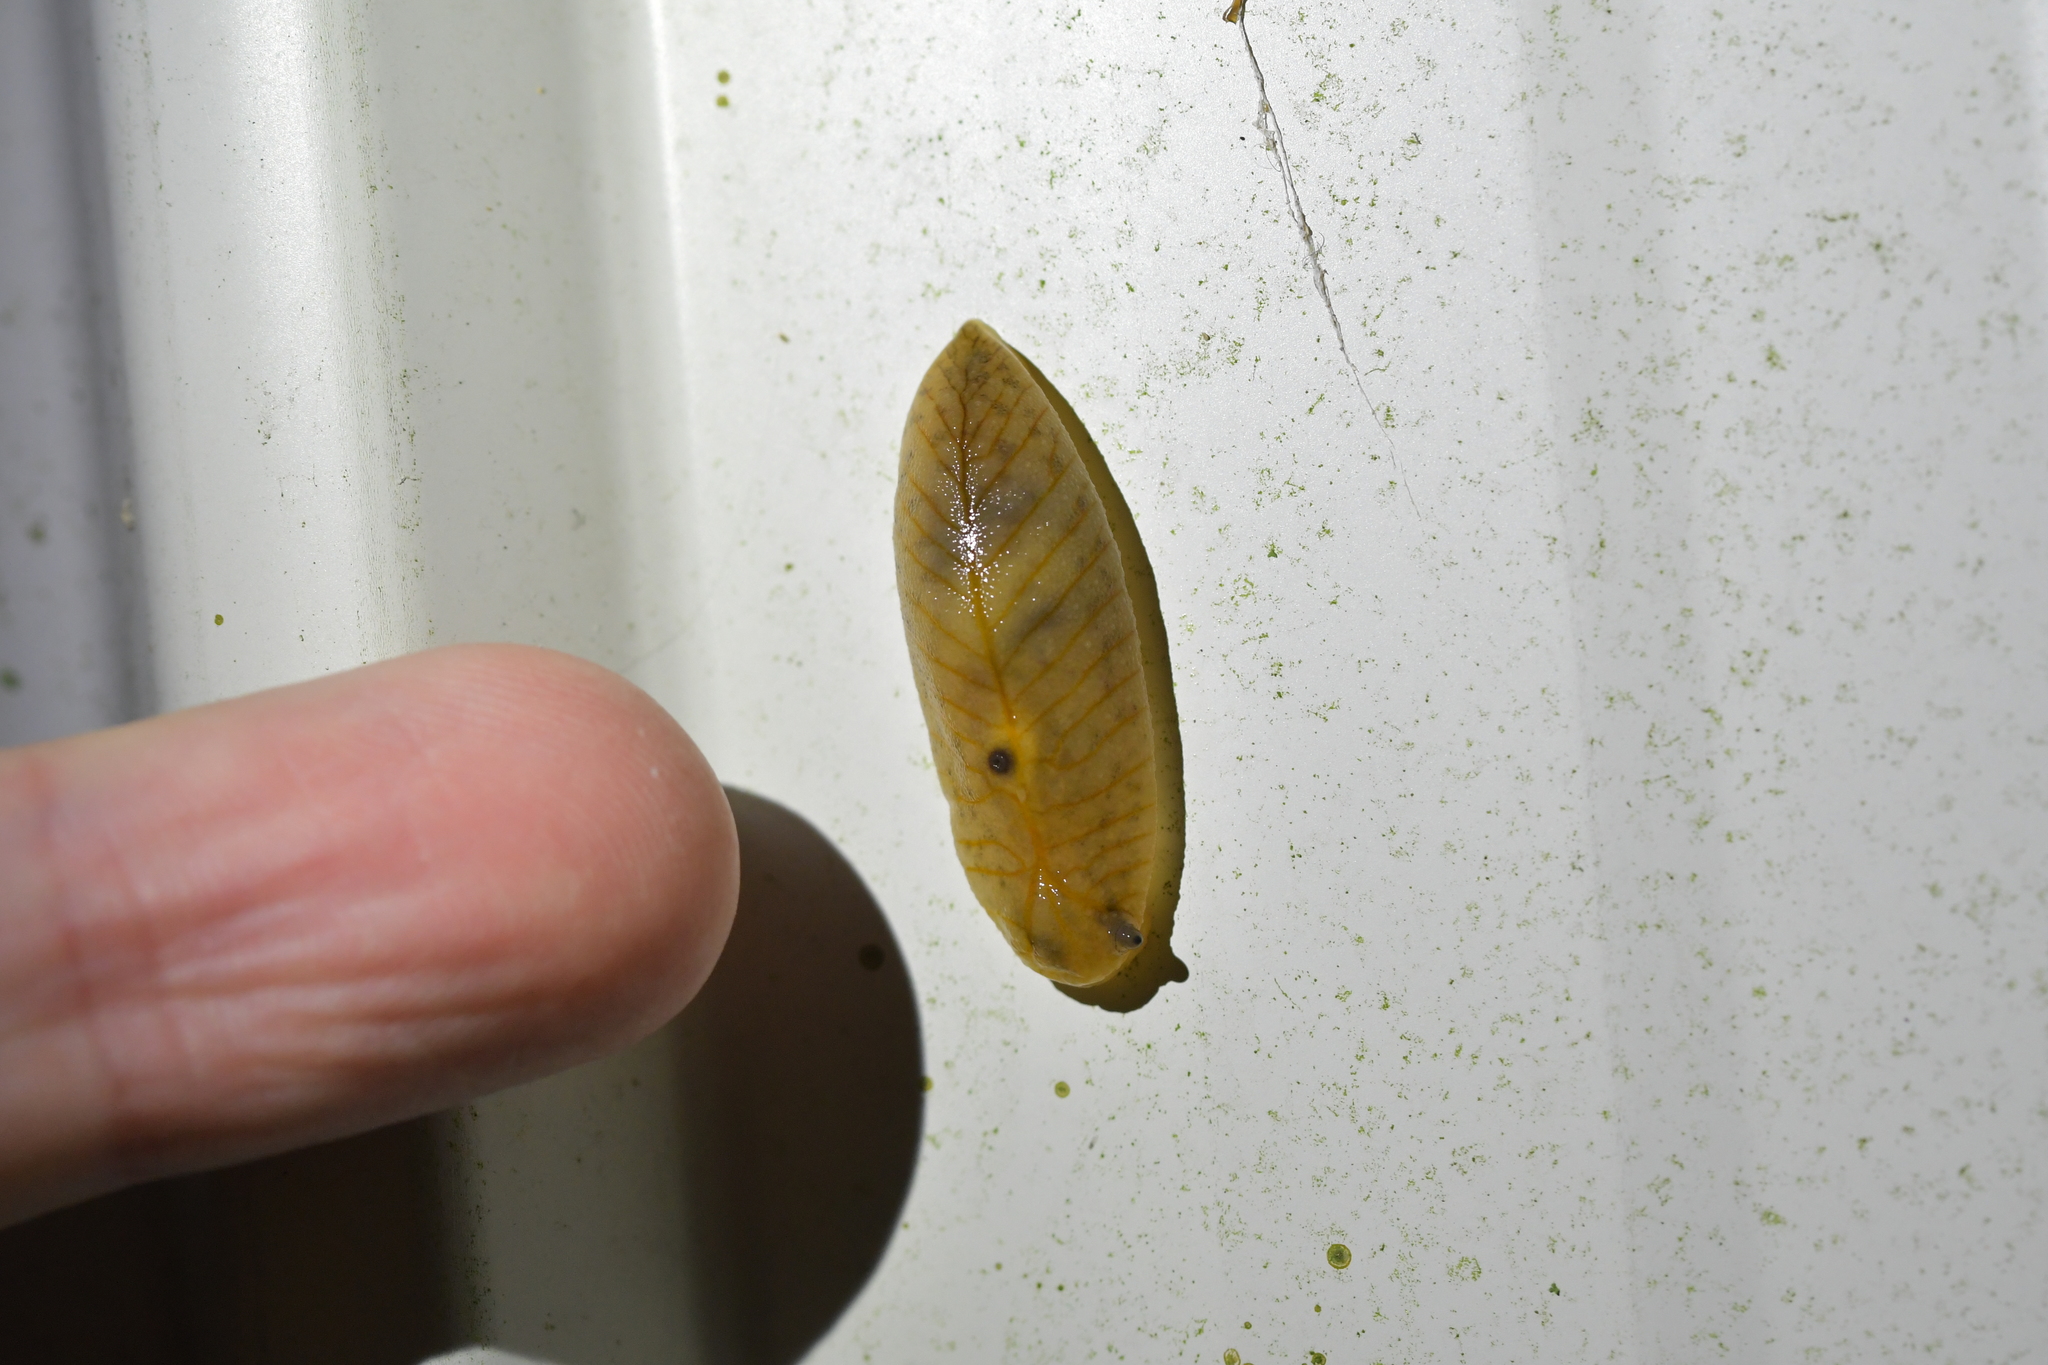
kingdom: Animalia
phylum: Mollusca
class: Gastropoda
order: Stylommatophora
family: Athoracophoridae
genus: Athoracophorus
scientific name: Athoracophorus bitentaculatus
